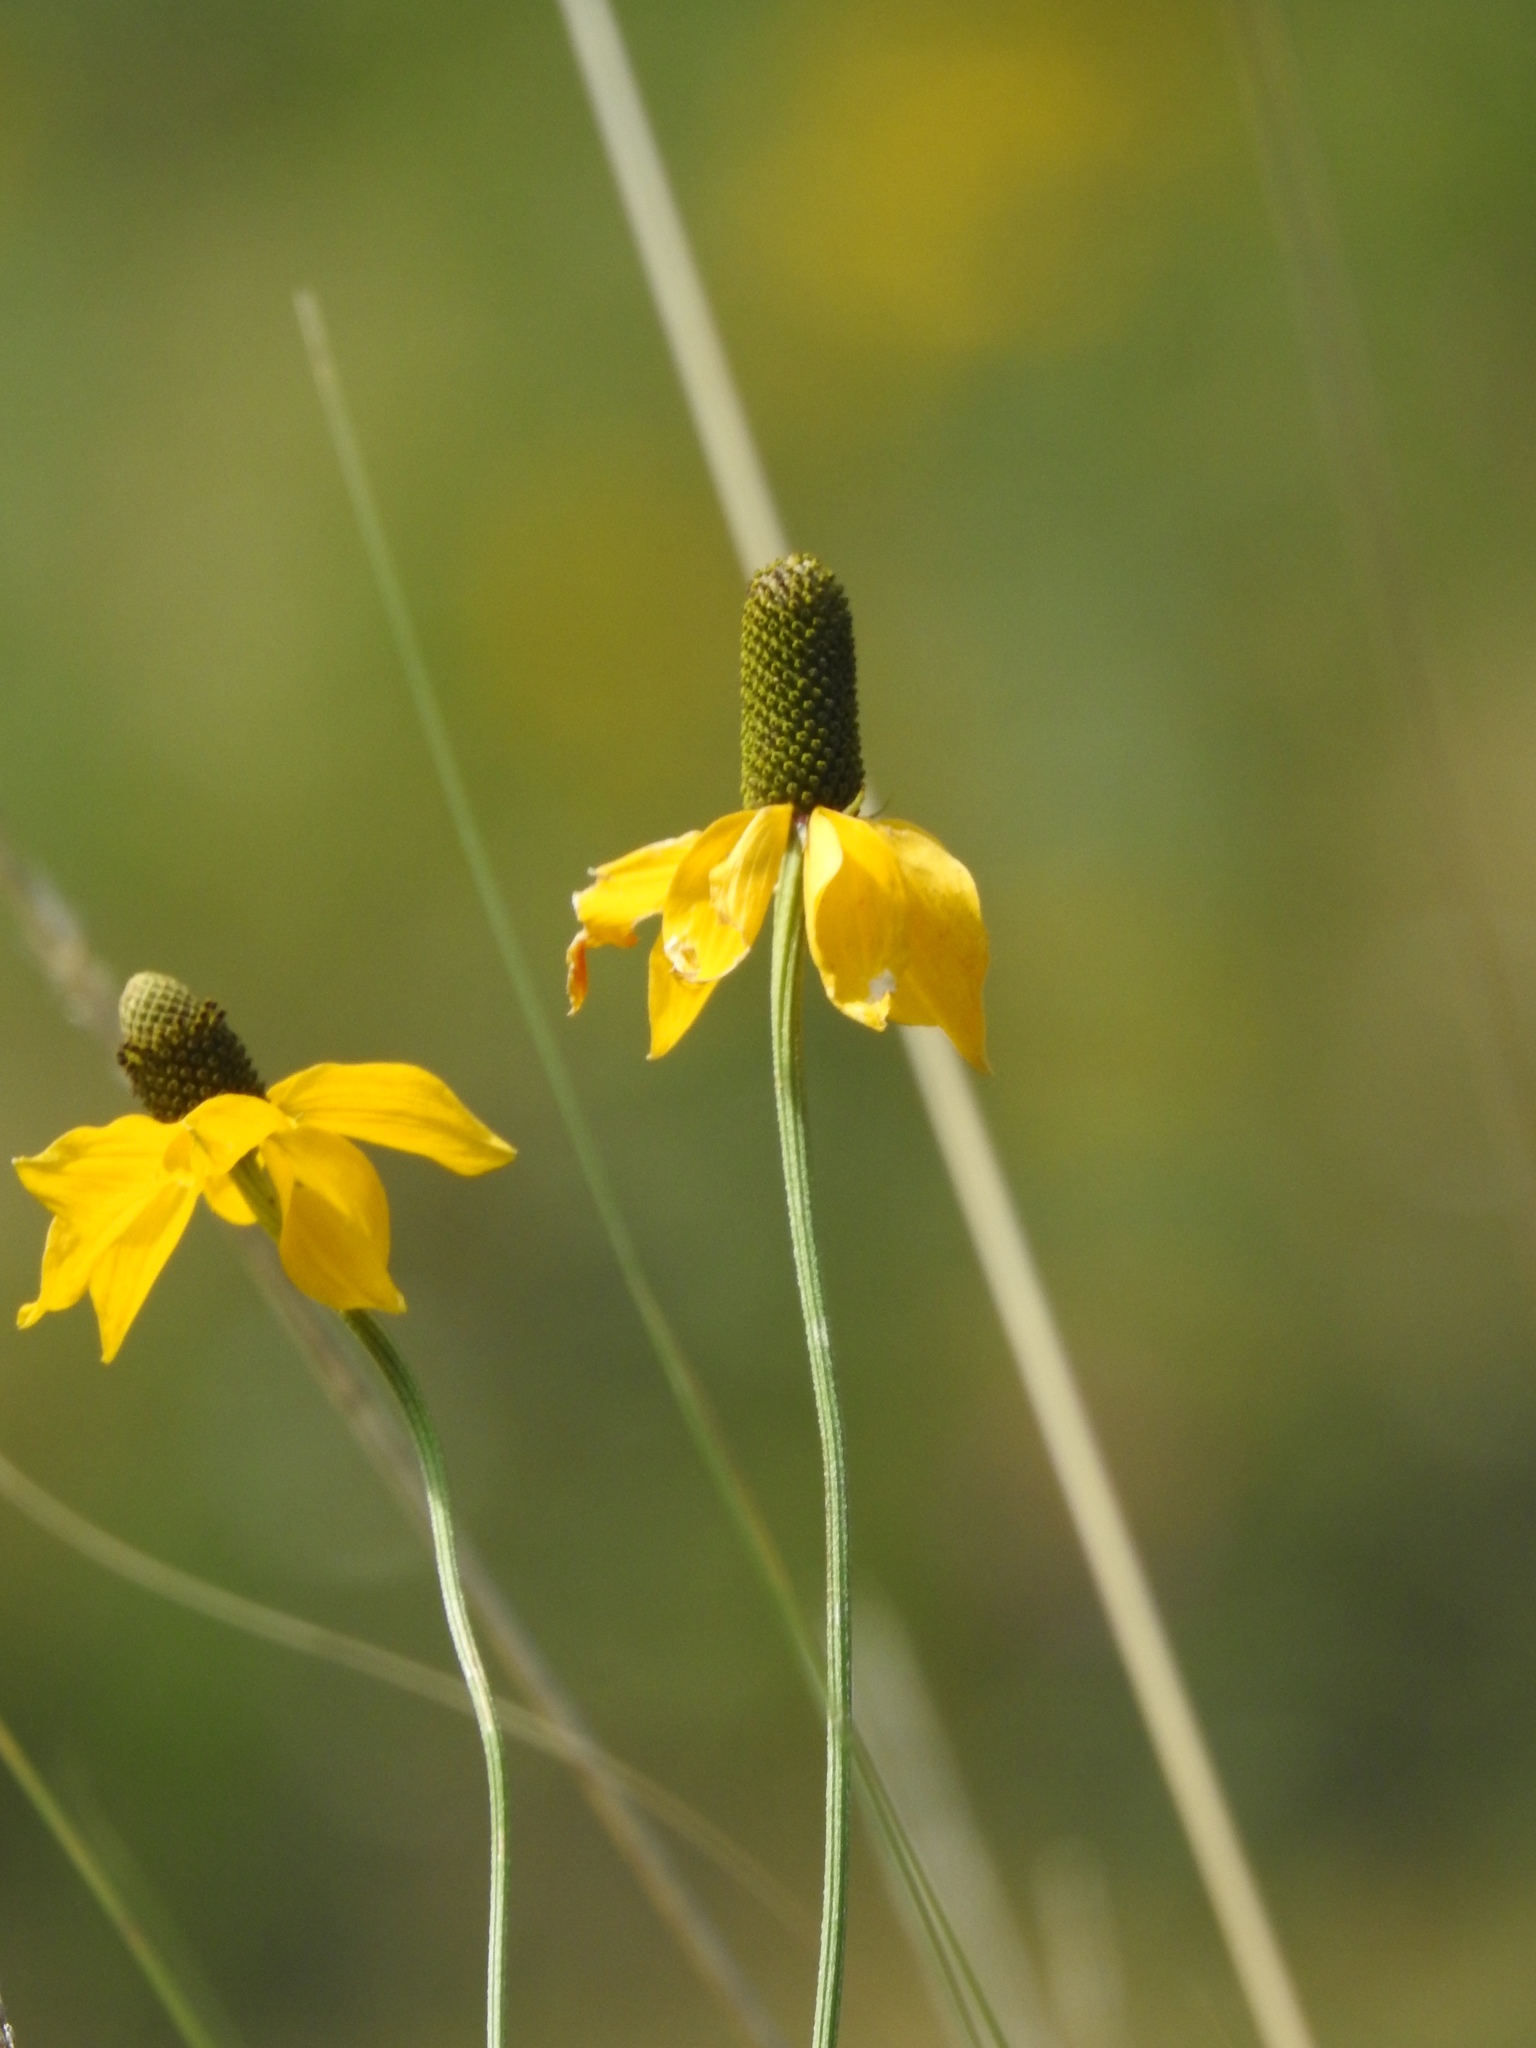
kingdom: Plantae
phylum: Tracheophyta
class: Magnoliopsida
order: Asterales
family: Asteraceae
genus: Ratibida
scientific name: Ratibida columnifera
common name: Prairie coneflower
